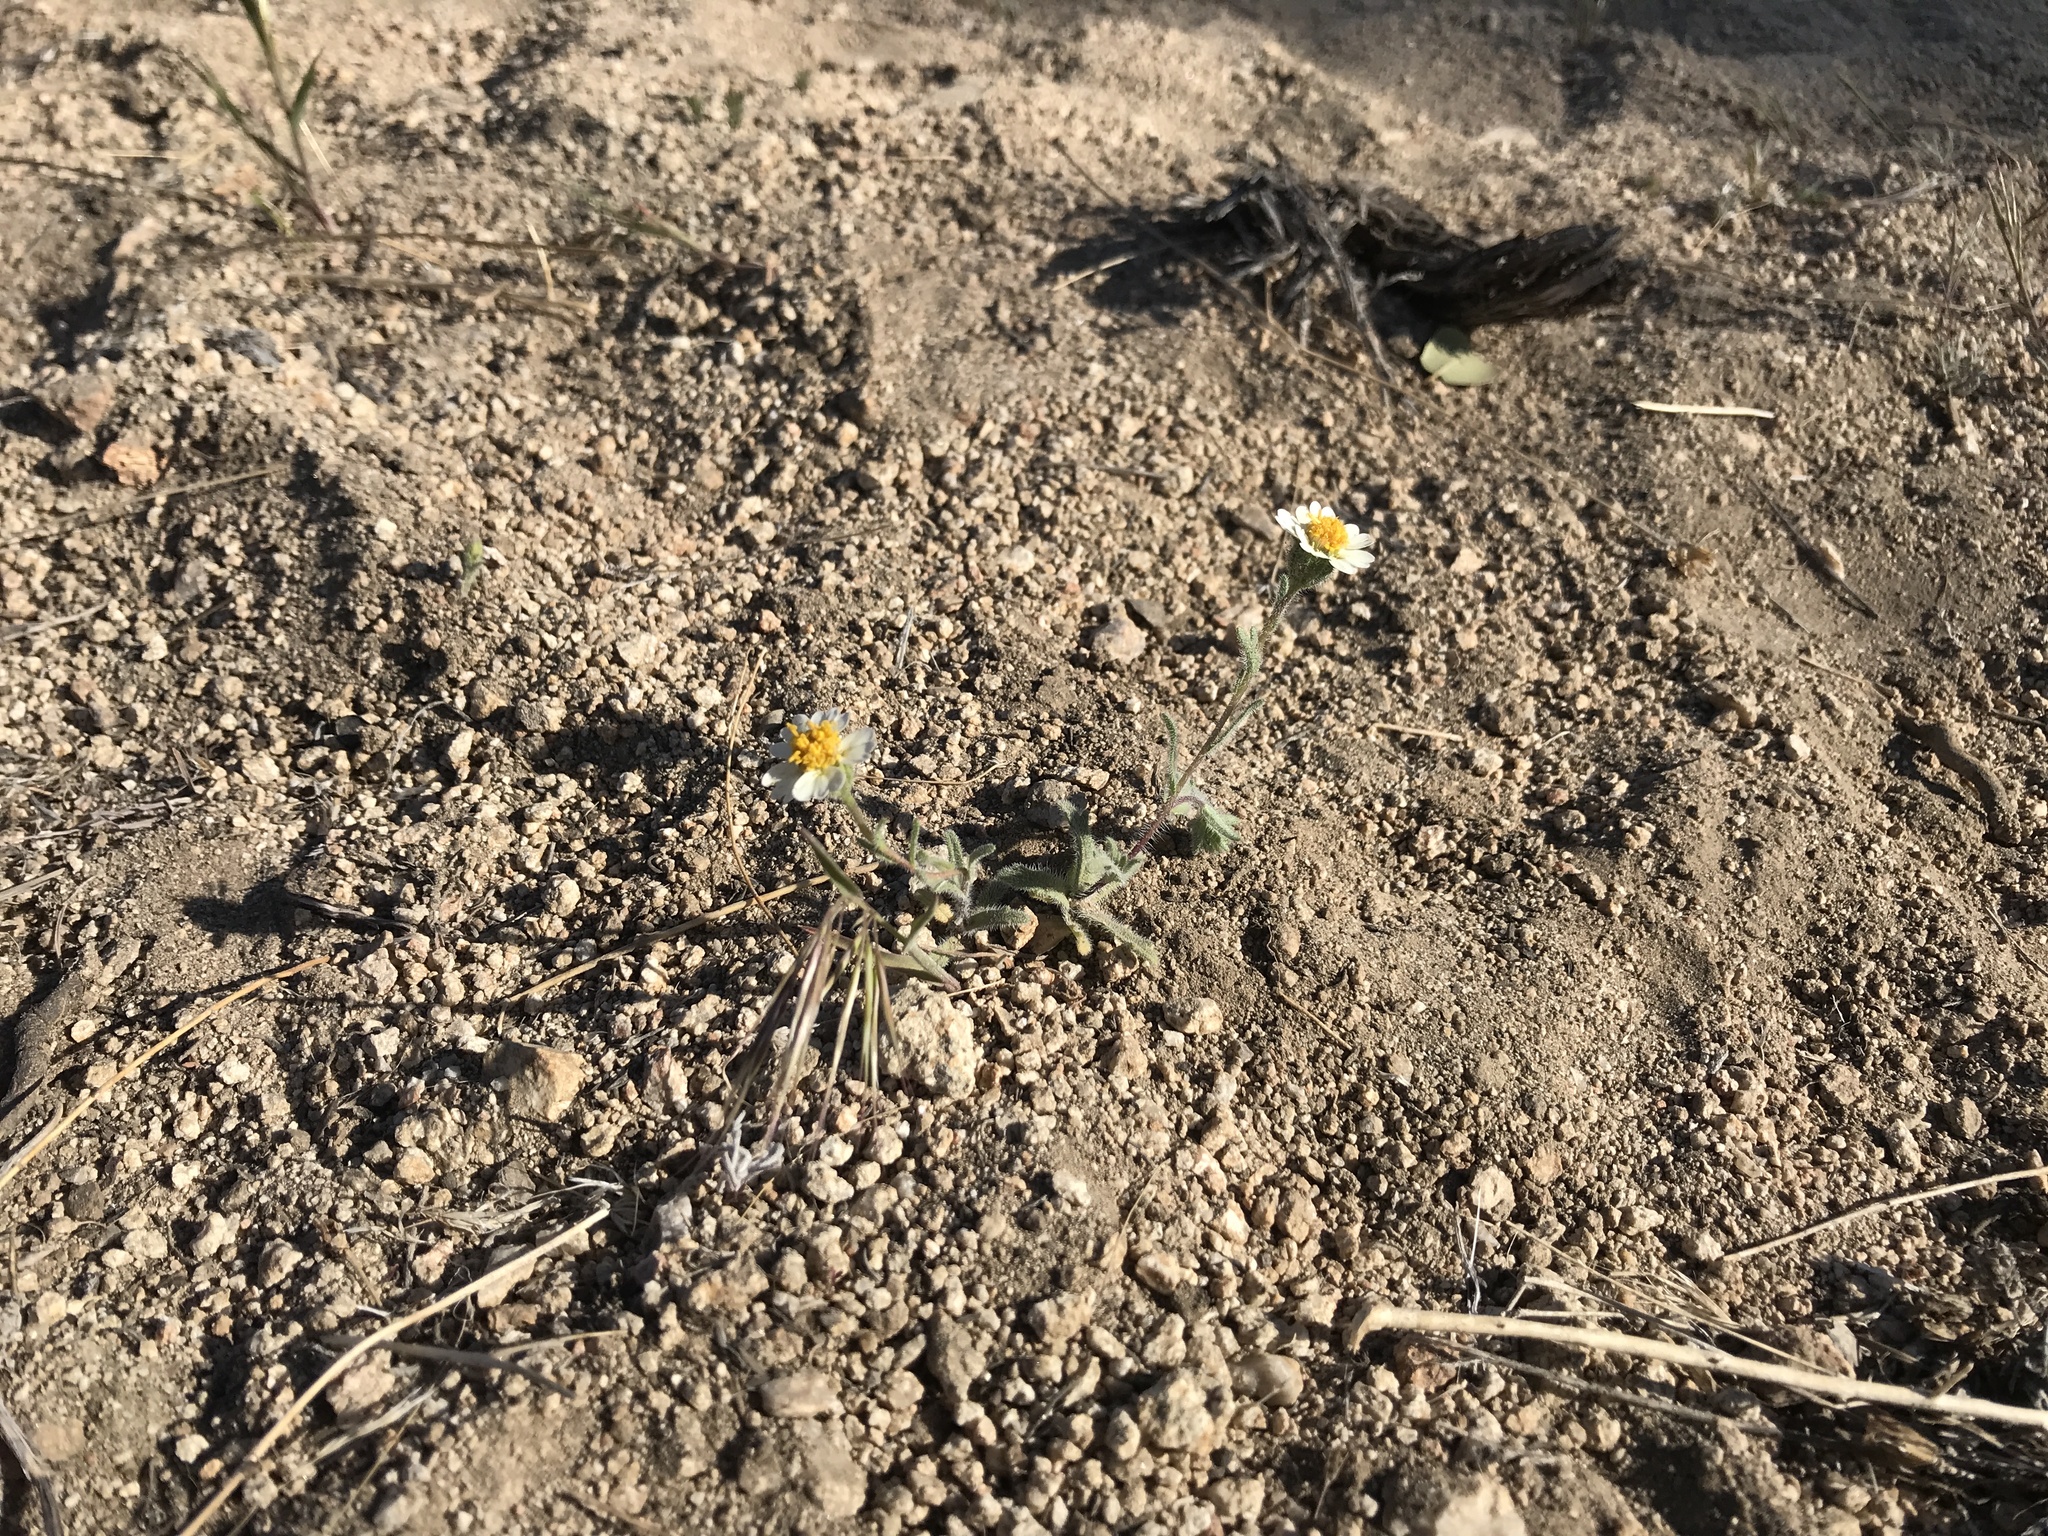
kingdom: Plantae
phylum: Tracheophyta
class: Magnoliopsida
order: Asterales
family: Asteraceae
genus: Layia
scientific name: Layia glandulosa
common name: White layia
